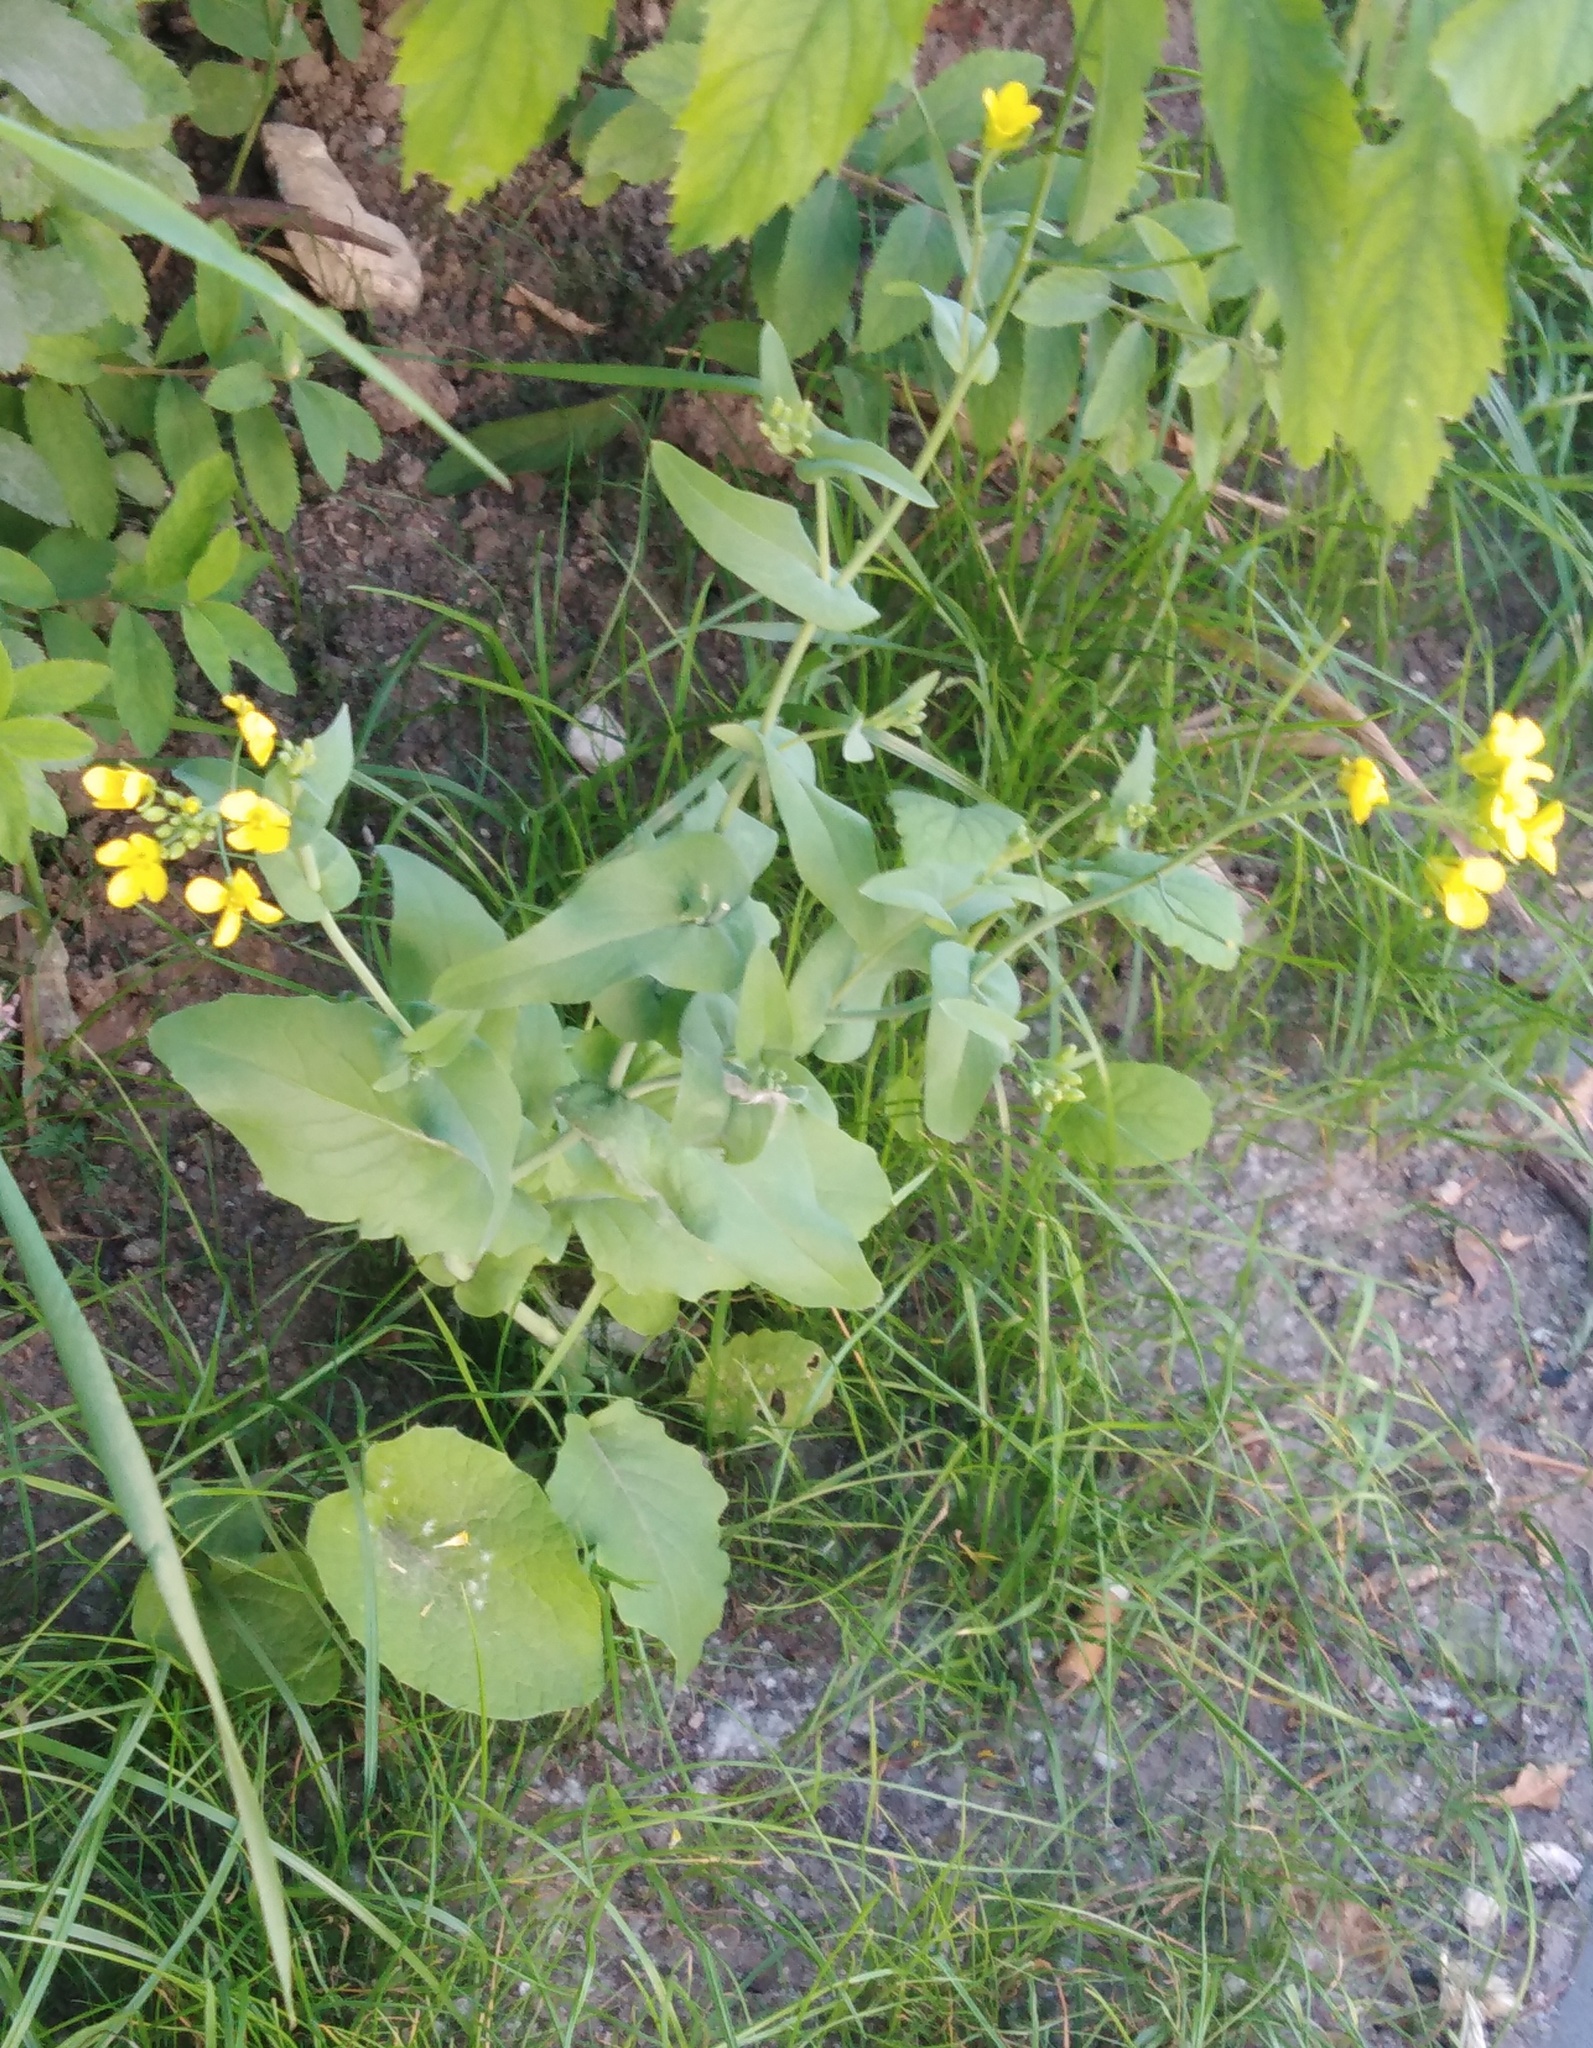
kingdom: Plantae
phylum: Tracheophyta
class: Magnoliopsida
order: Brassicales
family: Brassicaceae
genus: Brassica
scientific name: Brassica rapa
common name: Field mustard
